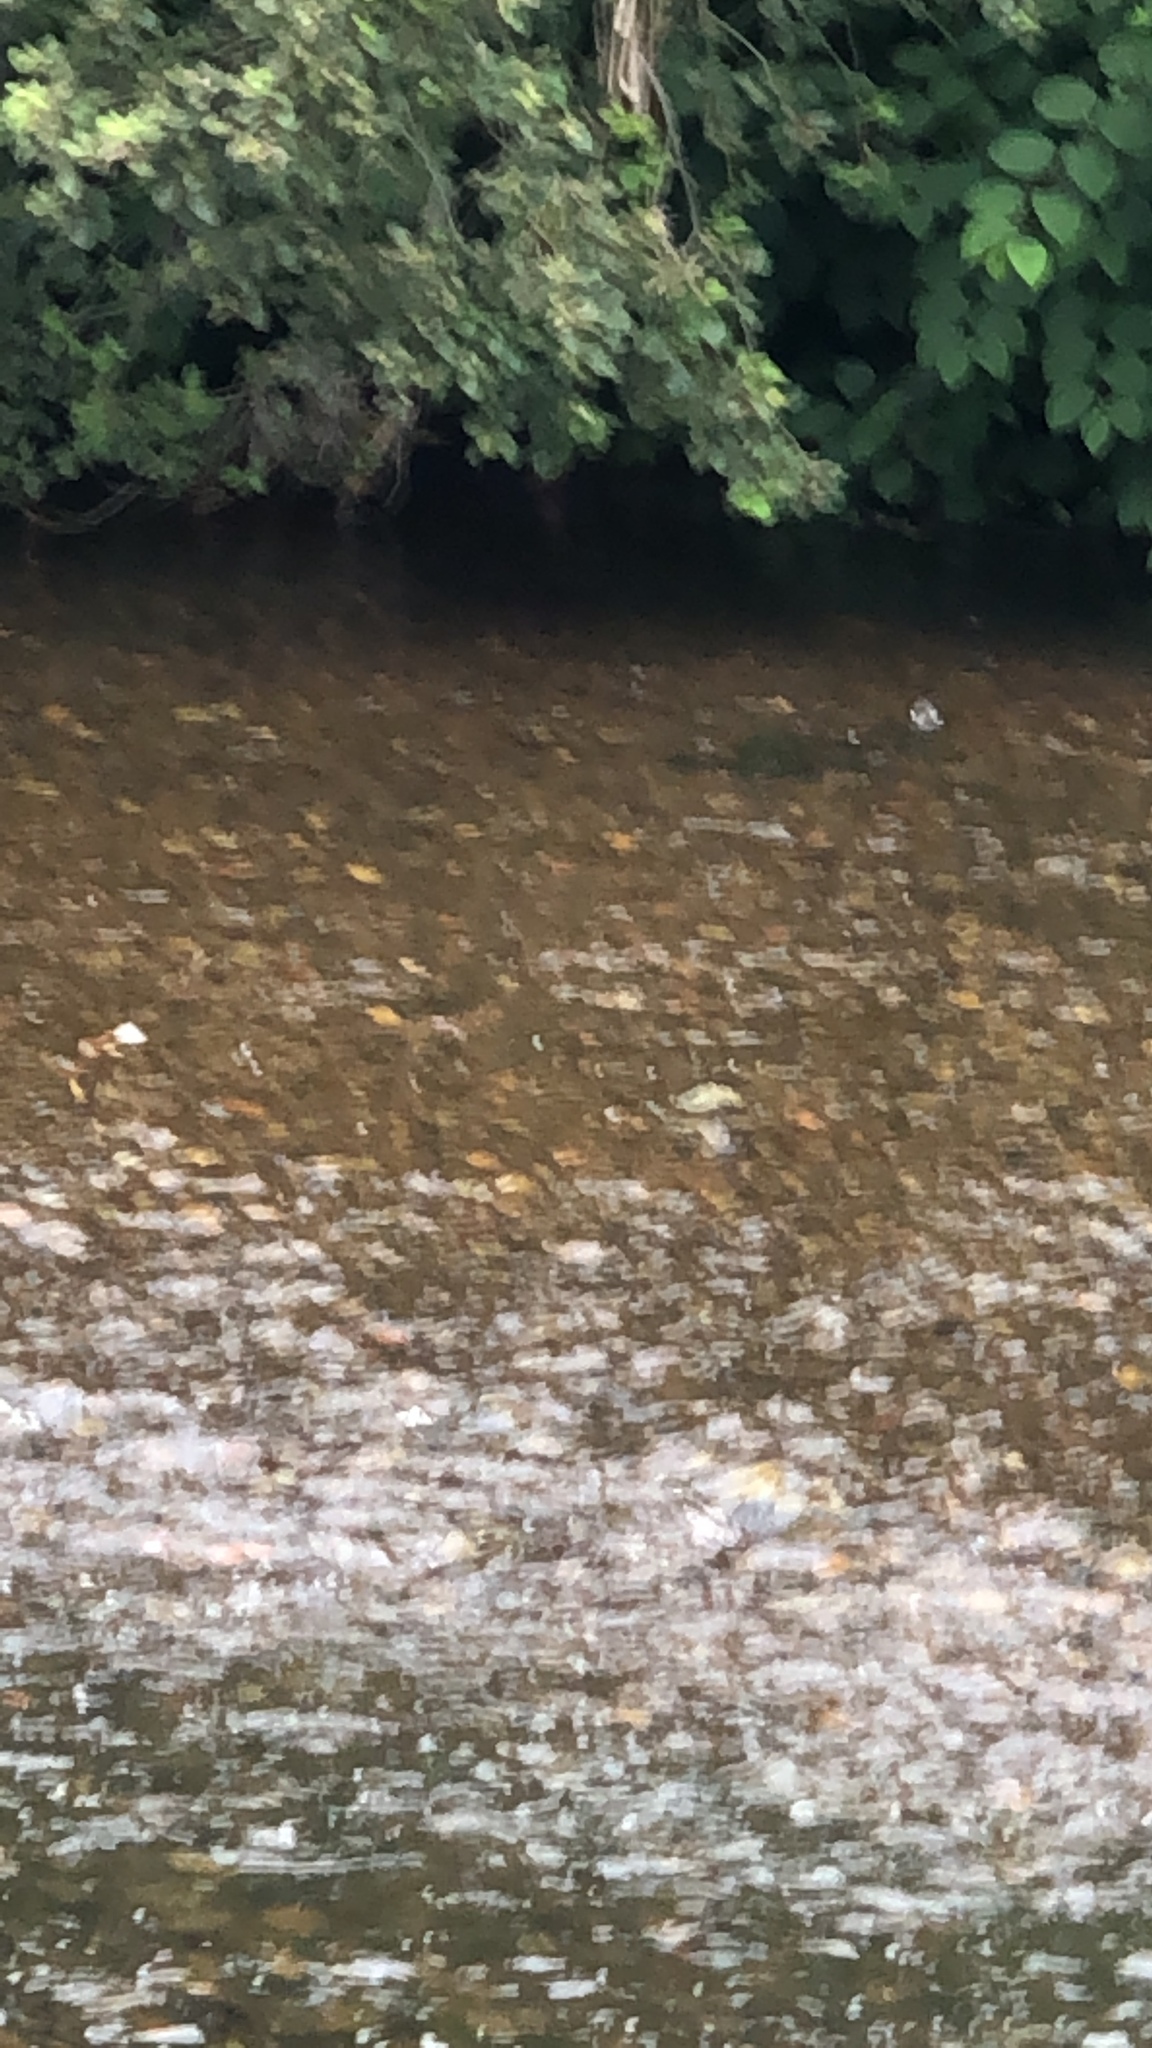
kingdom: Animalia
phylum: Chordata
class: Aves
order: Passeriformes
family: Cinclidae
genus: Cinclus
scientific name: Cinclus cinclus
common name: White-throated dipper
